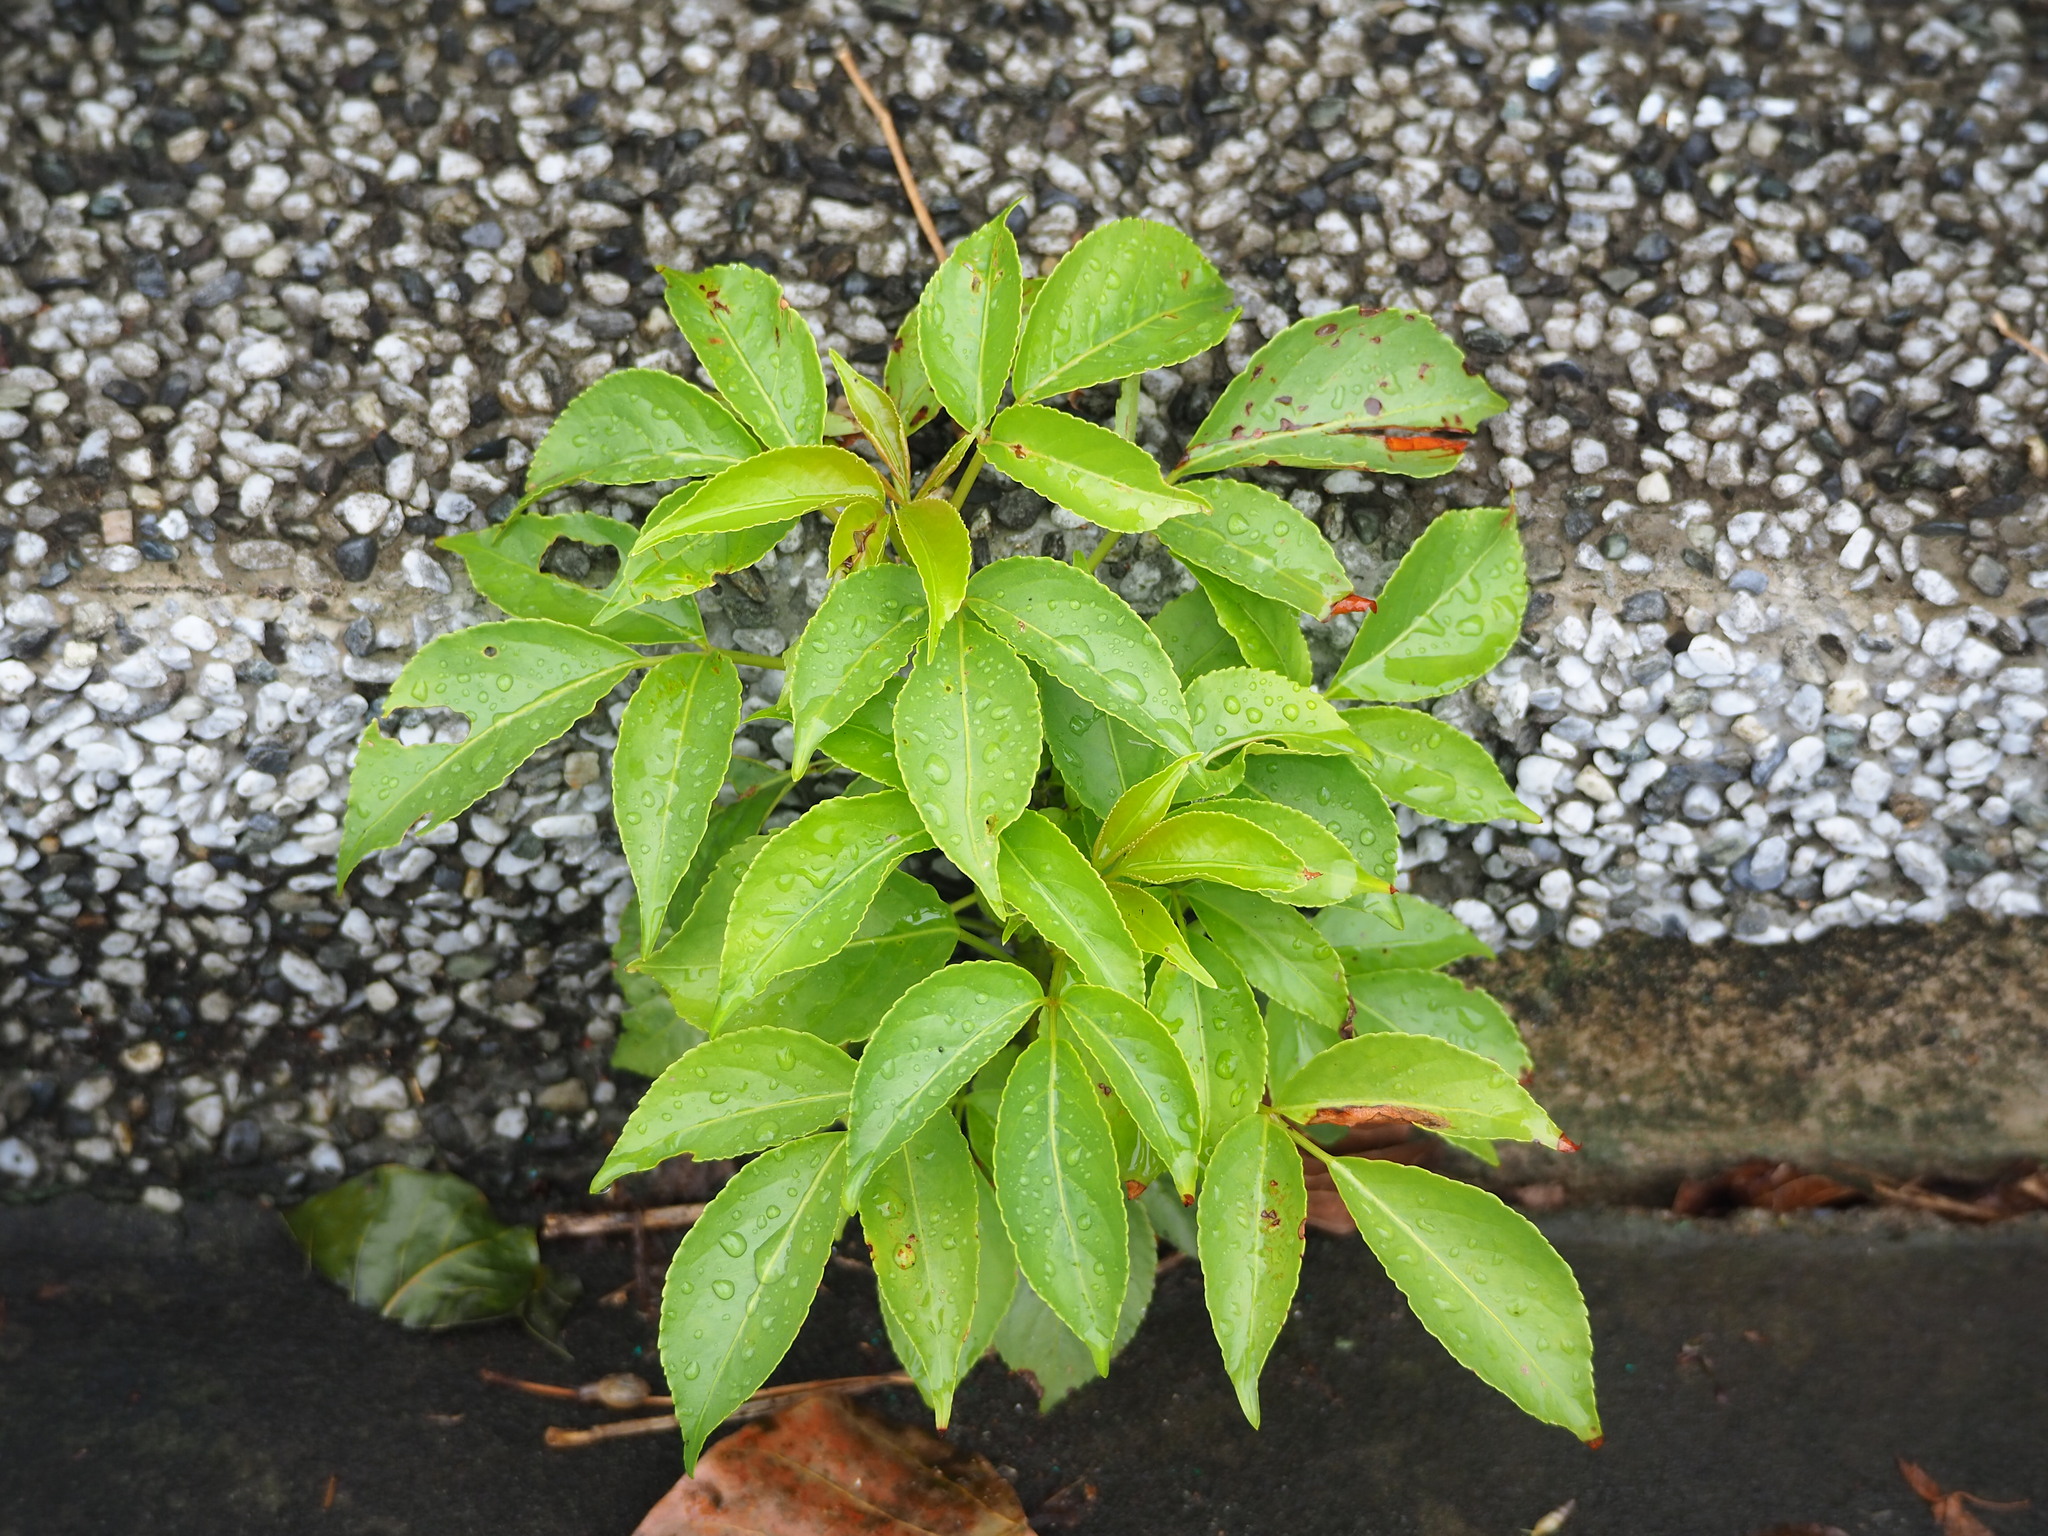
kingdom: Plantae
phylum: Tracheophyta
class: Magnoliopsida
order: Malpighiales
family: Phyllanthaceae
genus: Bischofia
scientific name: Bischofia javanica
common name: Javanese bishopwood
